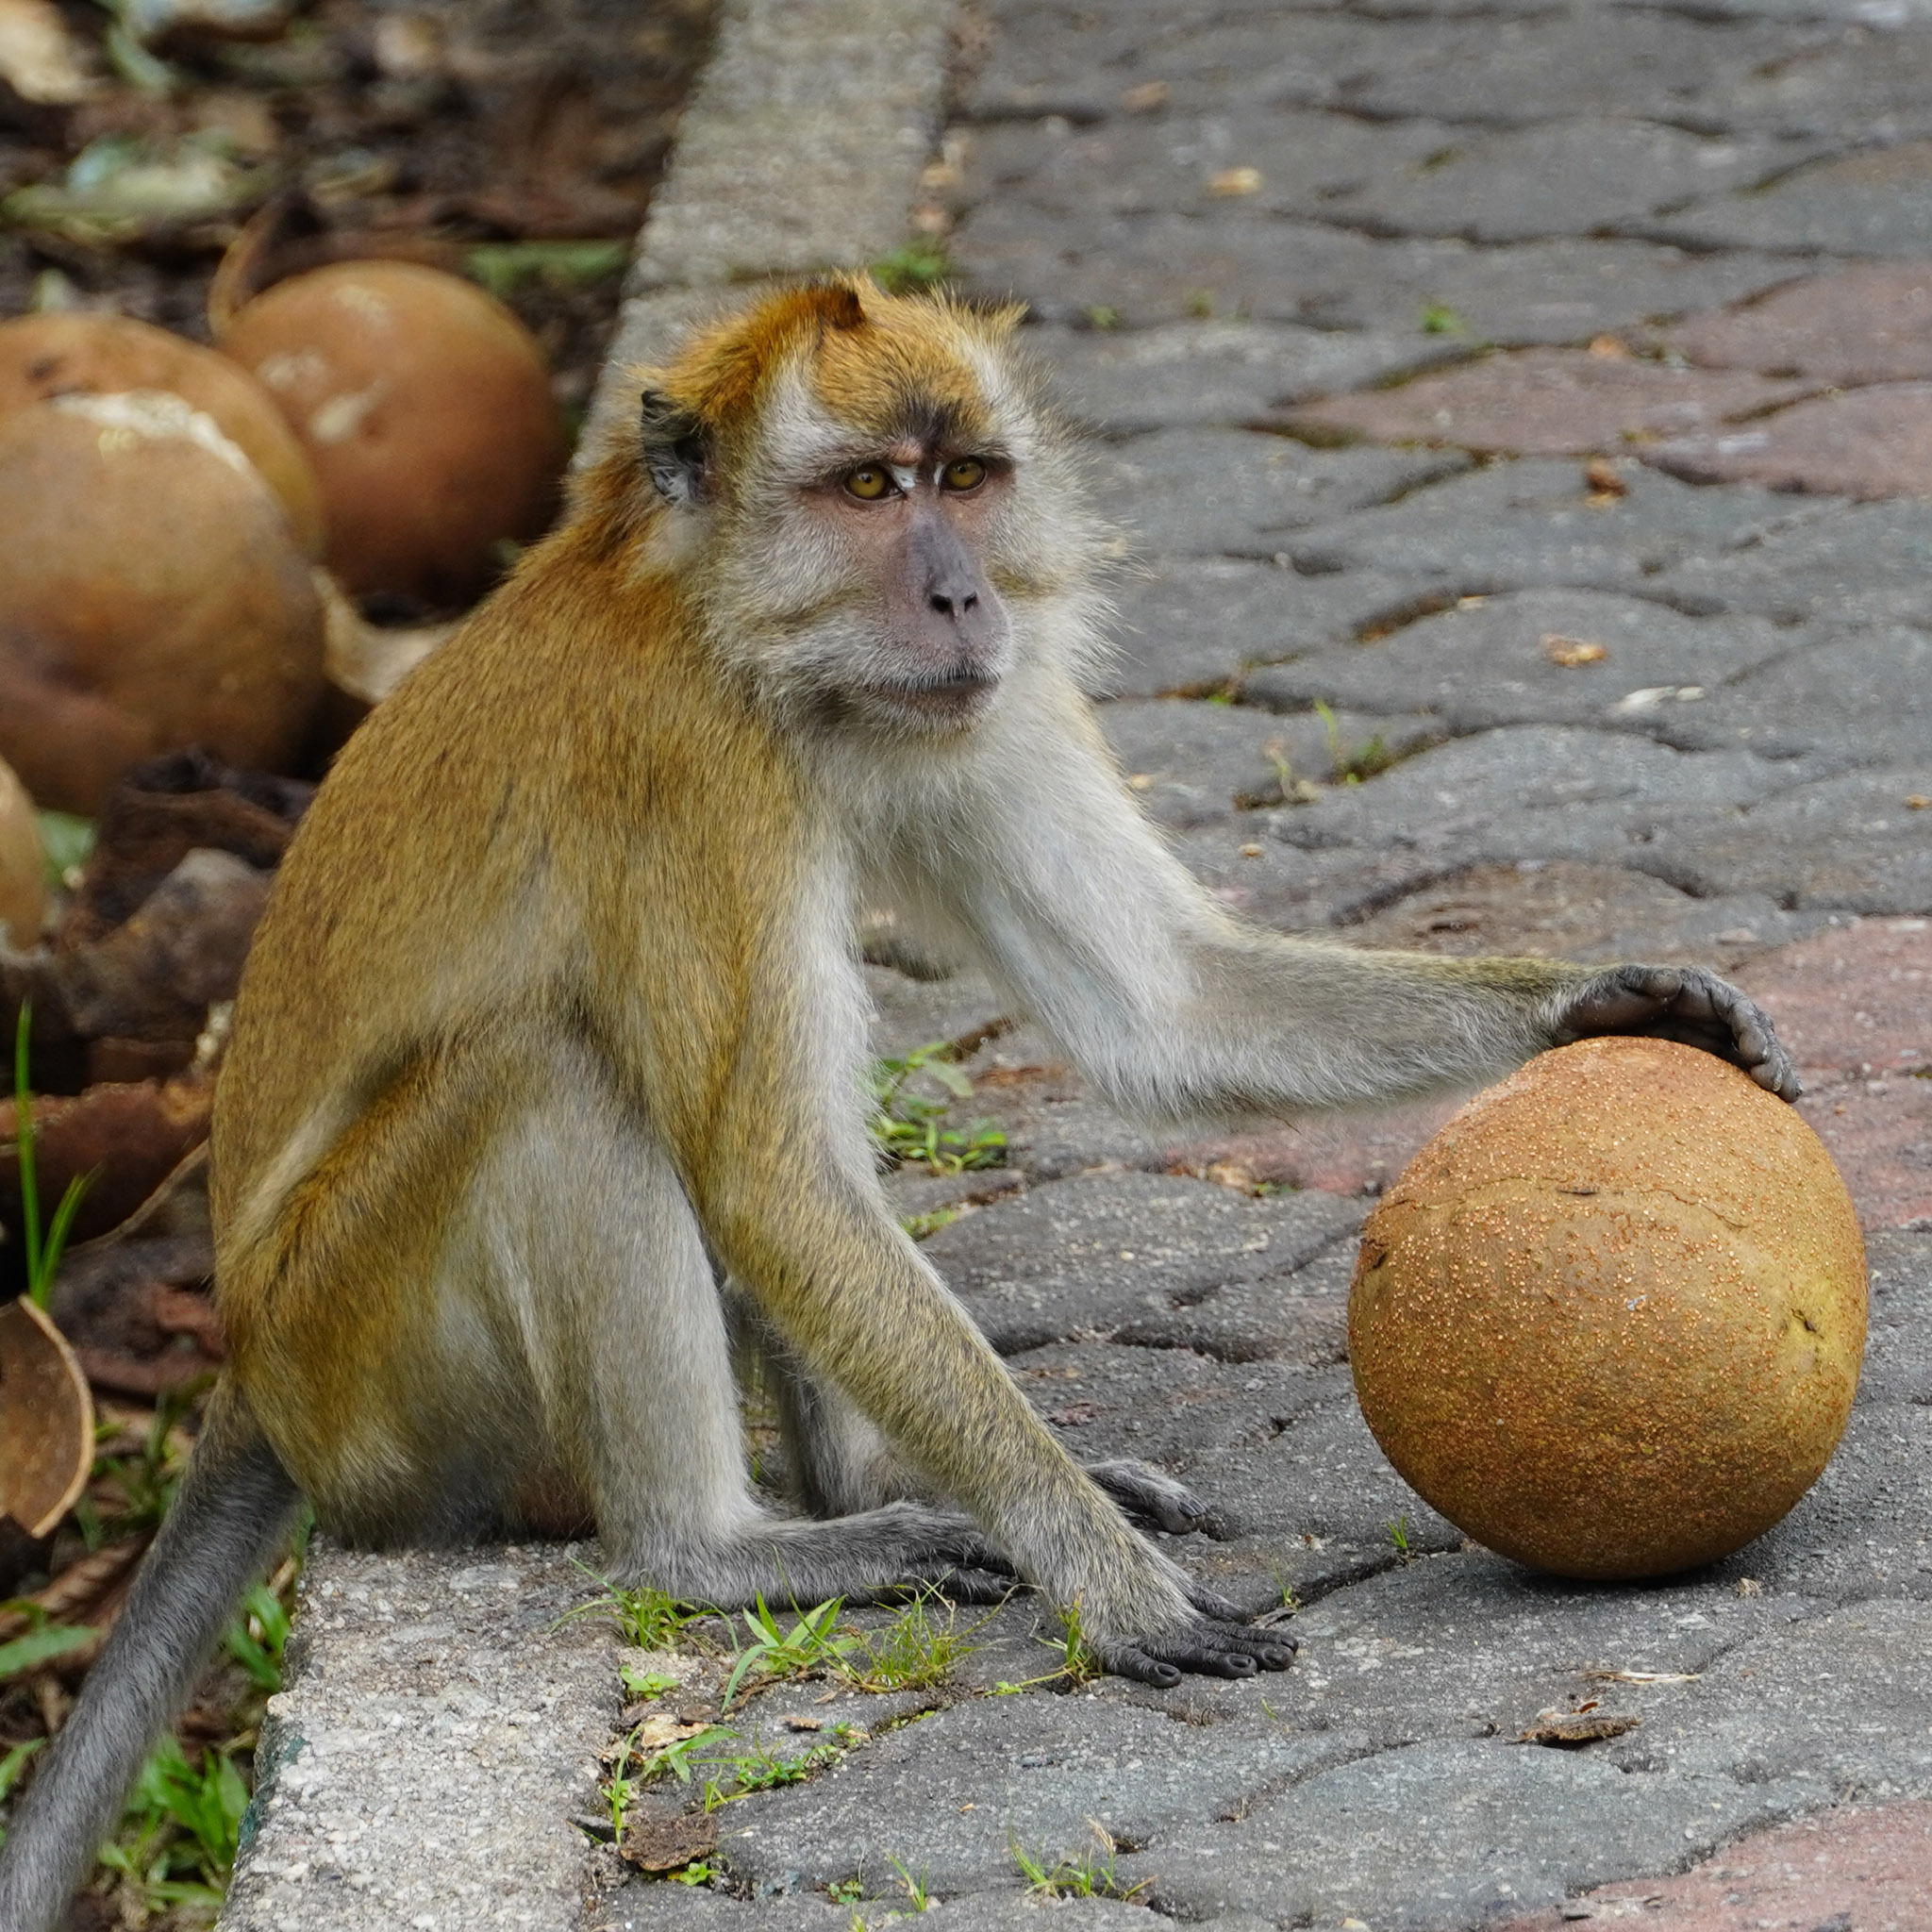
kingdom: Animalia
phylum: Chordata
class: Mammalia
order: Primates
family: Cercopithecidae
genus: Macaca
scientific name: Macaca fascicularis
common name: Crab-eating macaque
